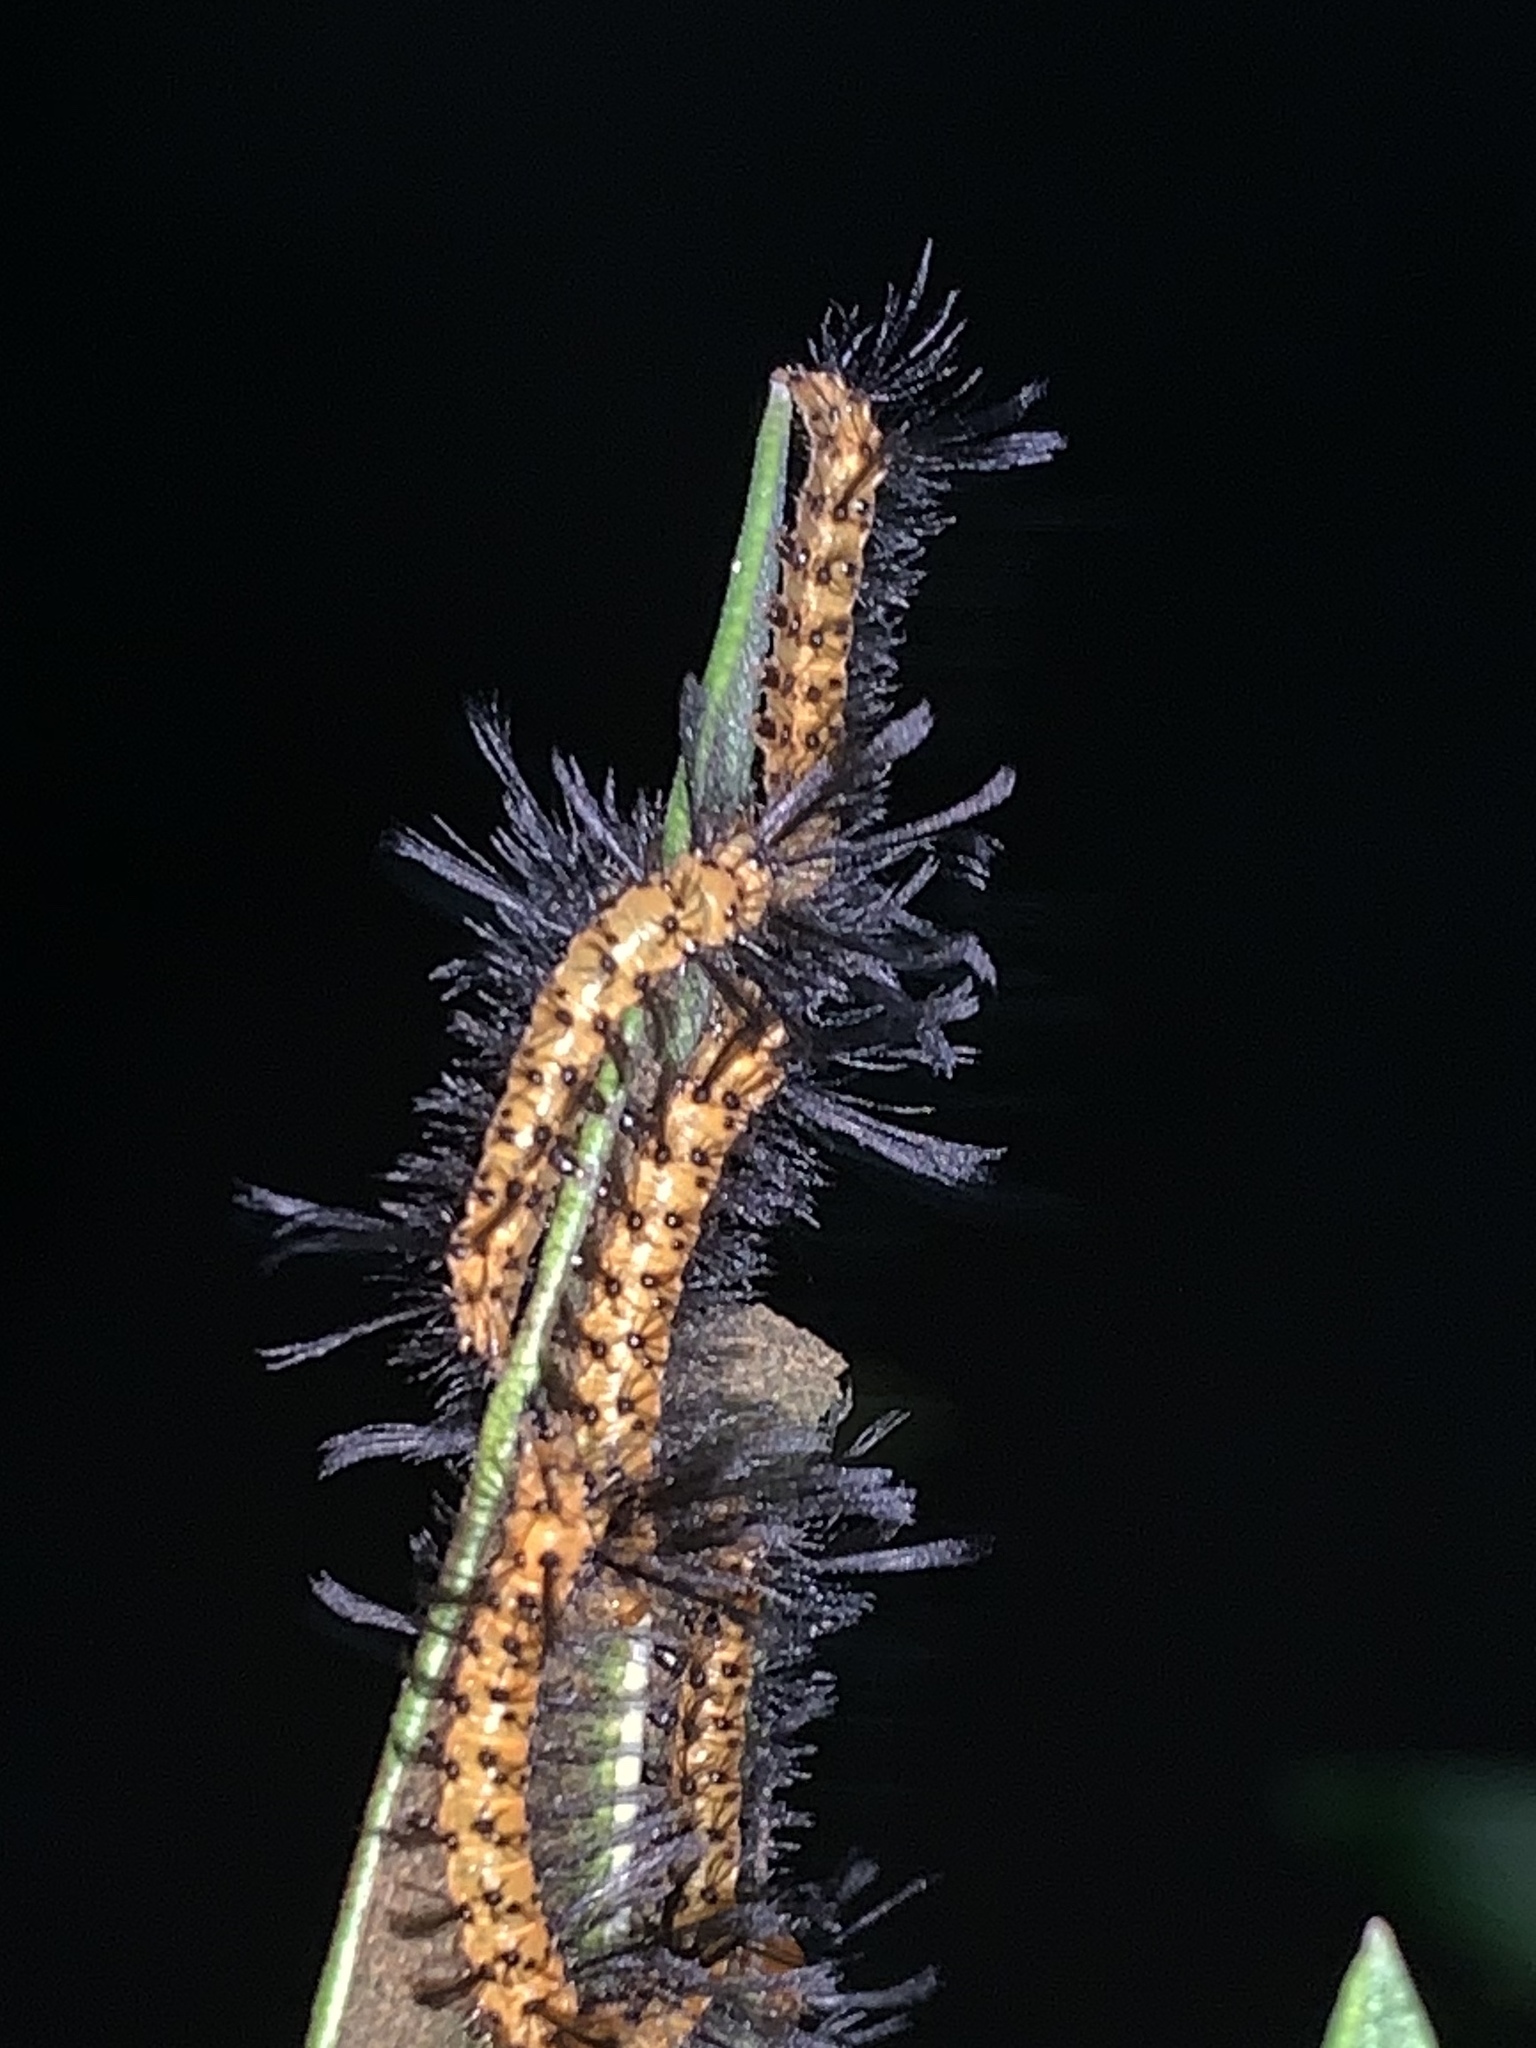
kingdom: Animalia
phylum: Arthropoda
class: Insecta
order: Lepidoptera
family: Erebidae
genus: Syntomeida
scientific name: Syntomeida epilais
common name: Polka-dot wasp moth
